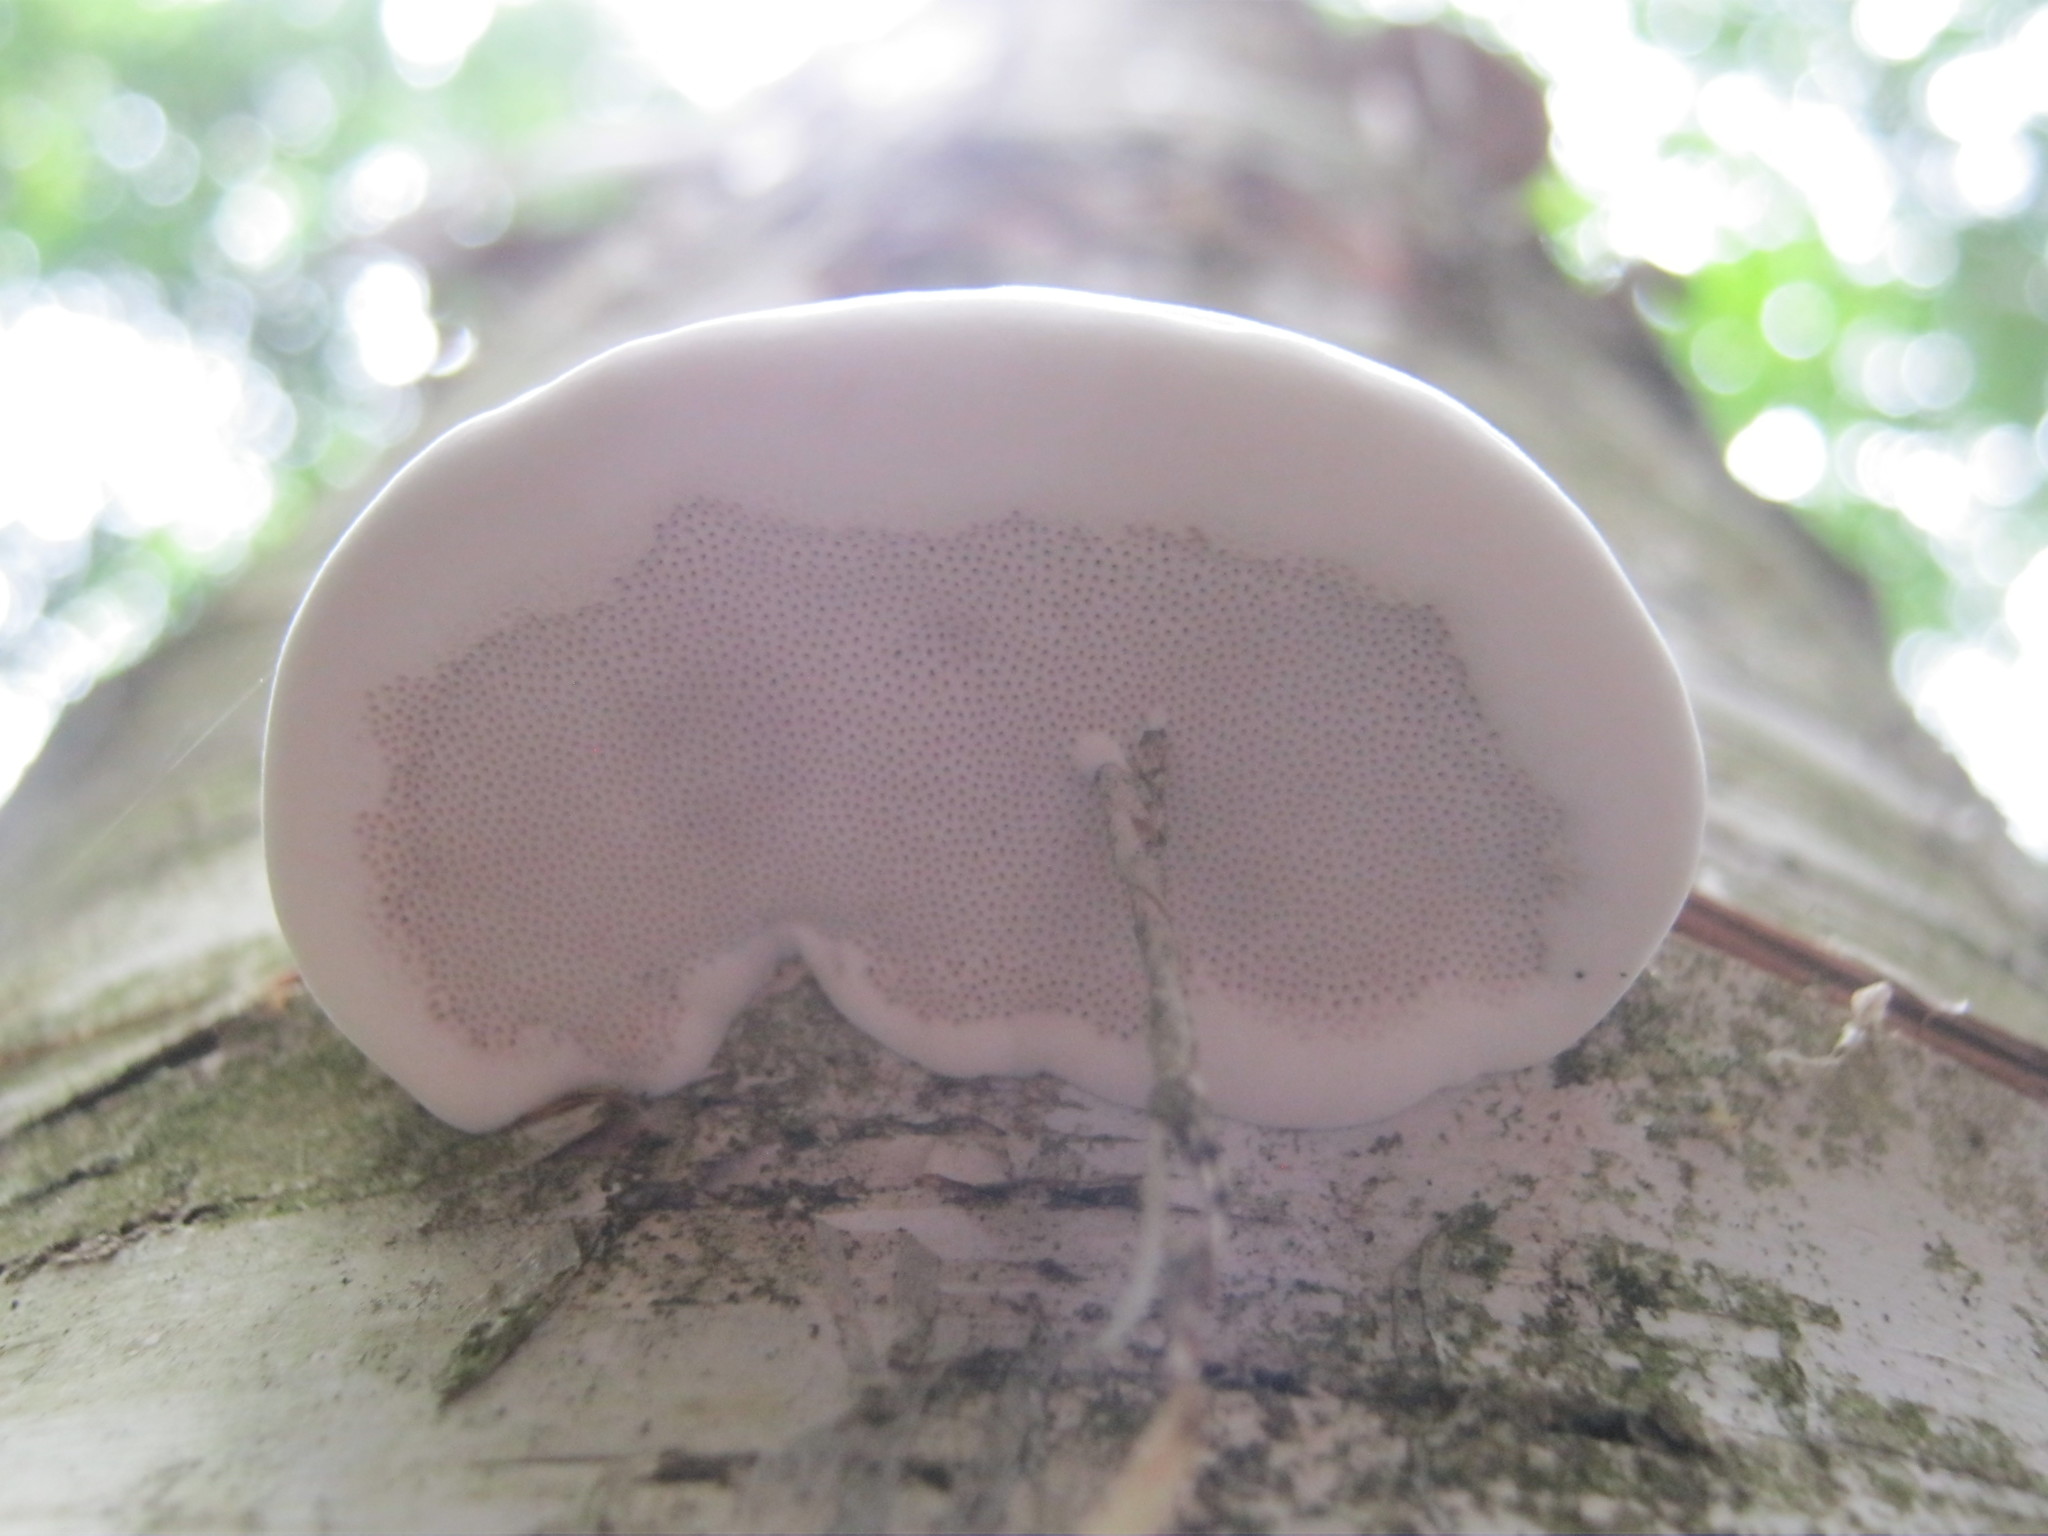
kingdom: Fungi
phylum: Basidiomycota
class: Agaricomycetes
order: Polyporales
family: Polyporaceae
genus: Fomes
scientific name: Fomes fomentarius
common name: Hoof fungus
